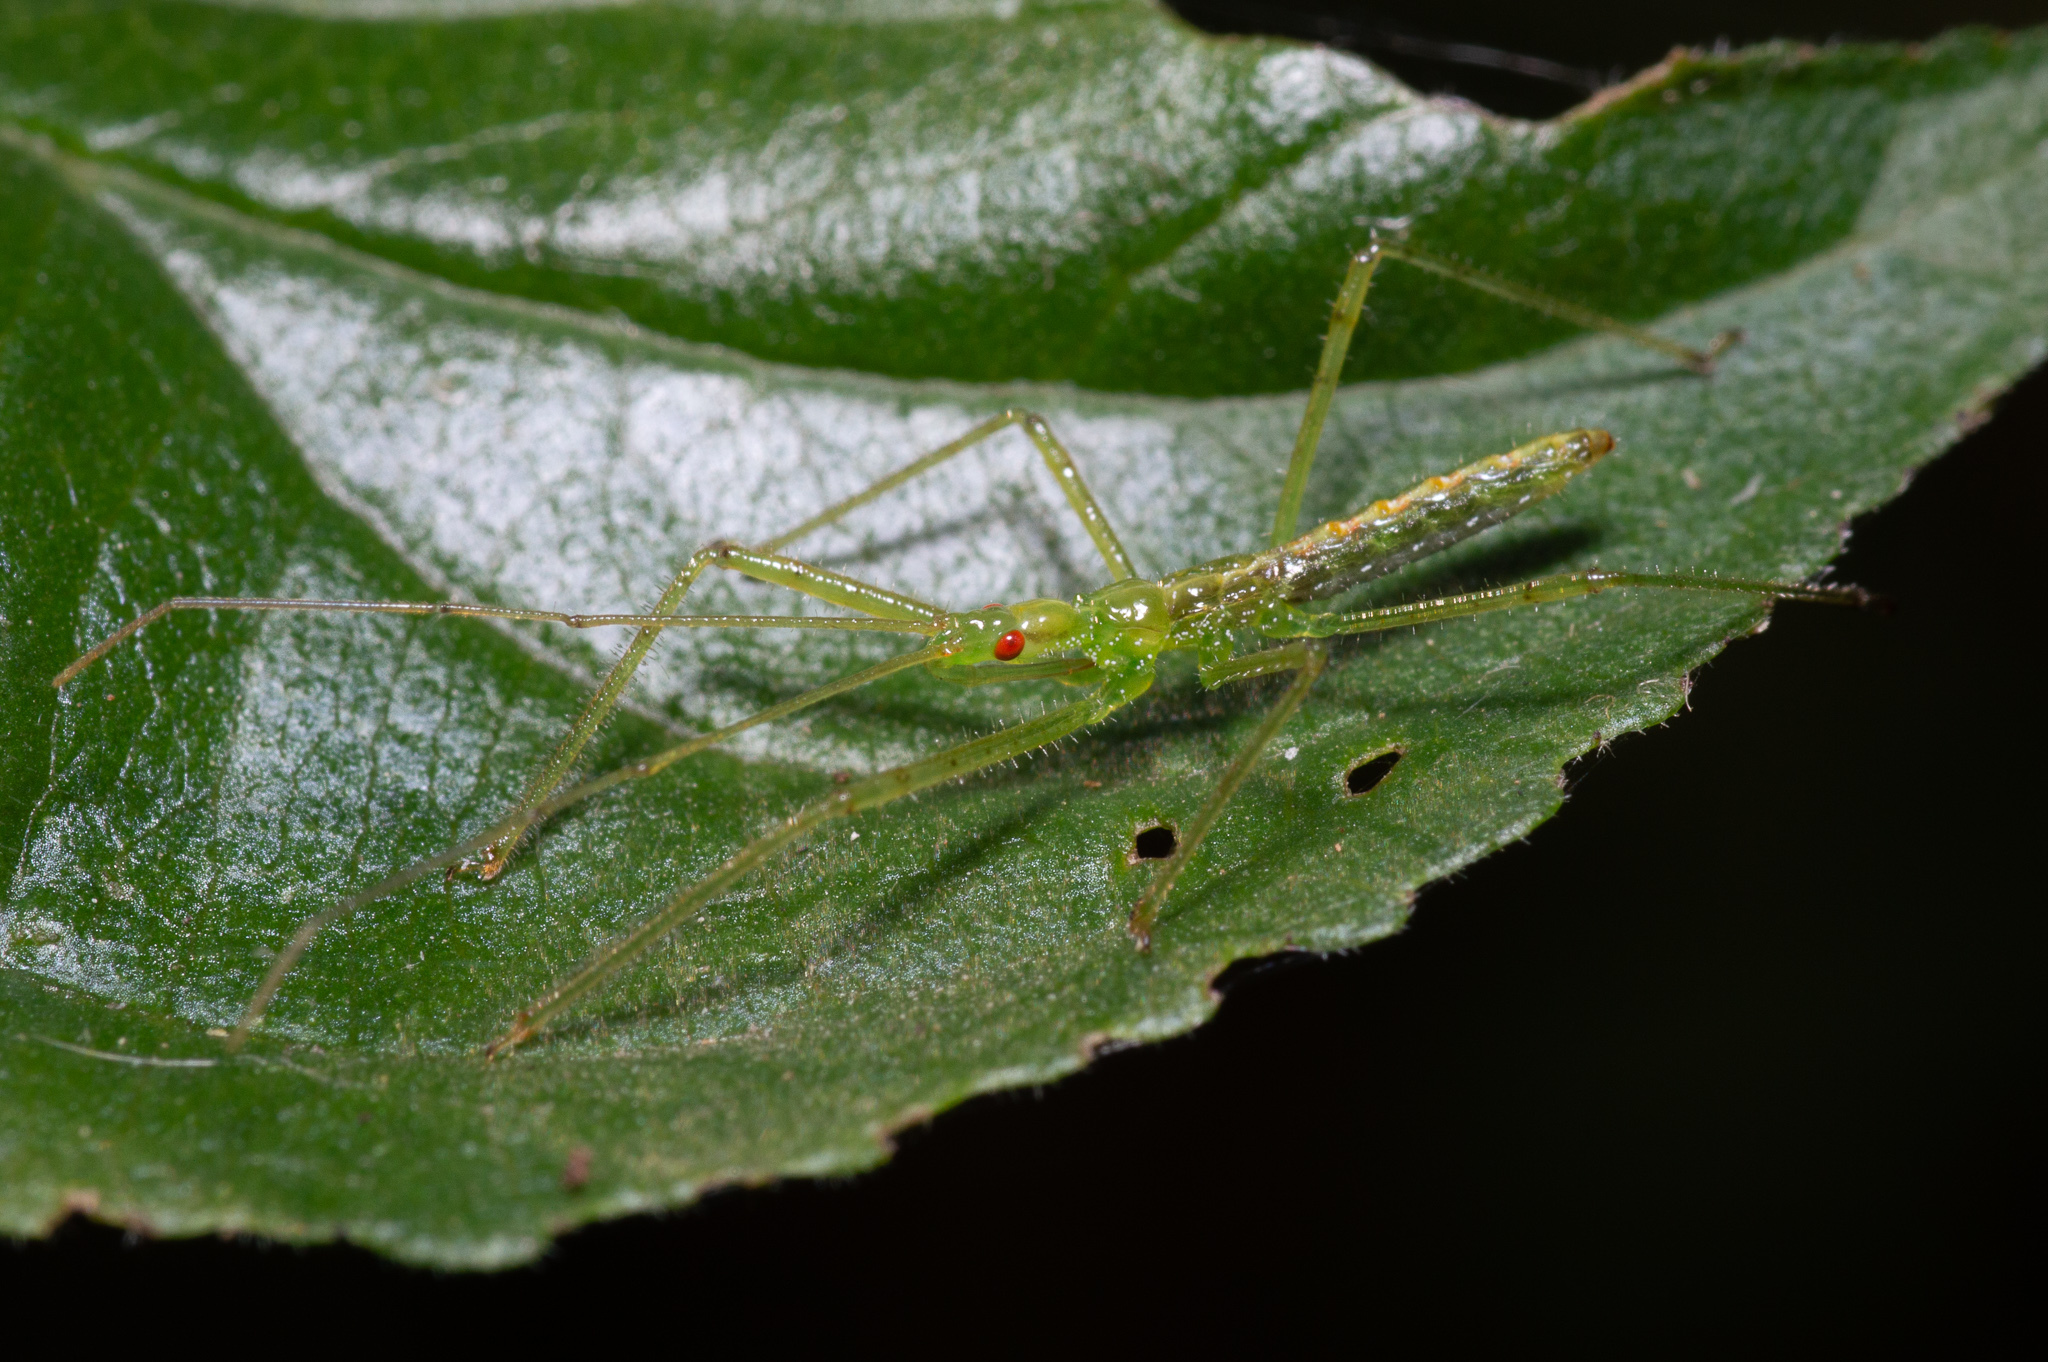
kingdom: Animalia
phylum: Arthropoda
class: Insecta
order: Hemiptera
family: Reduviidae
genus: Zelus
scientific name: Zelus luridus
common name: Pale green assassin bug
